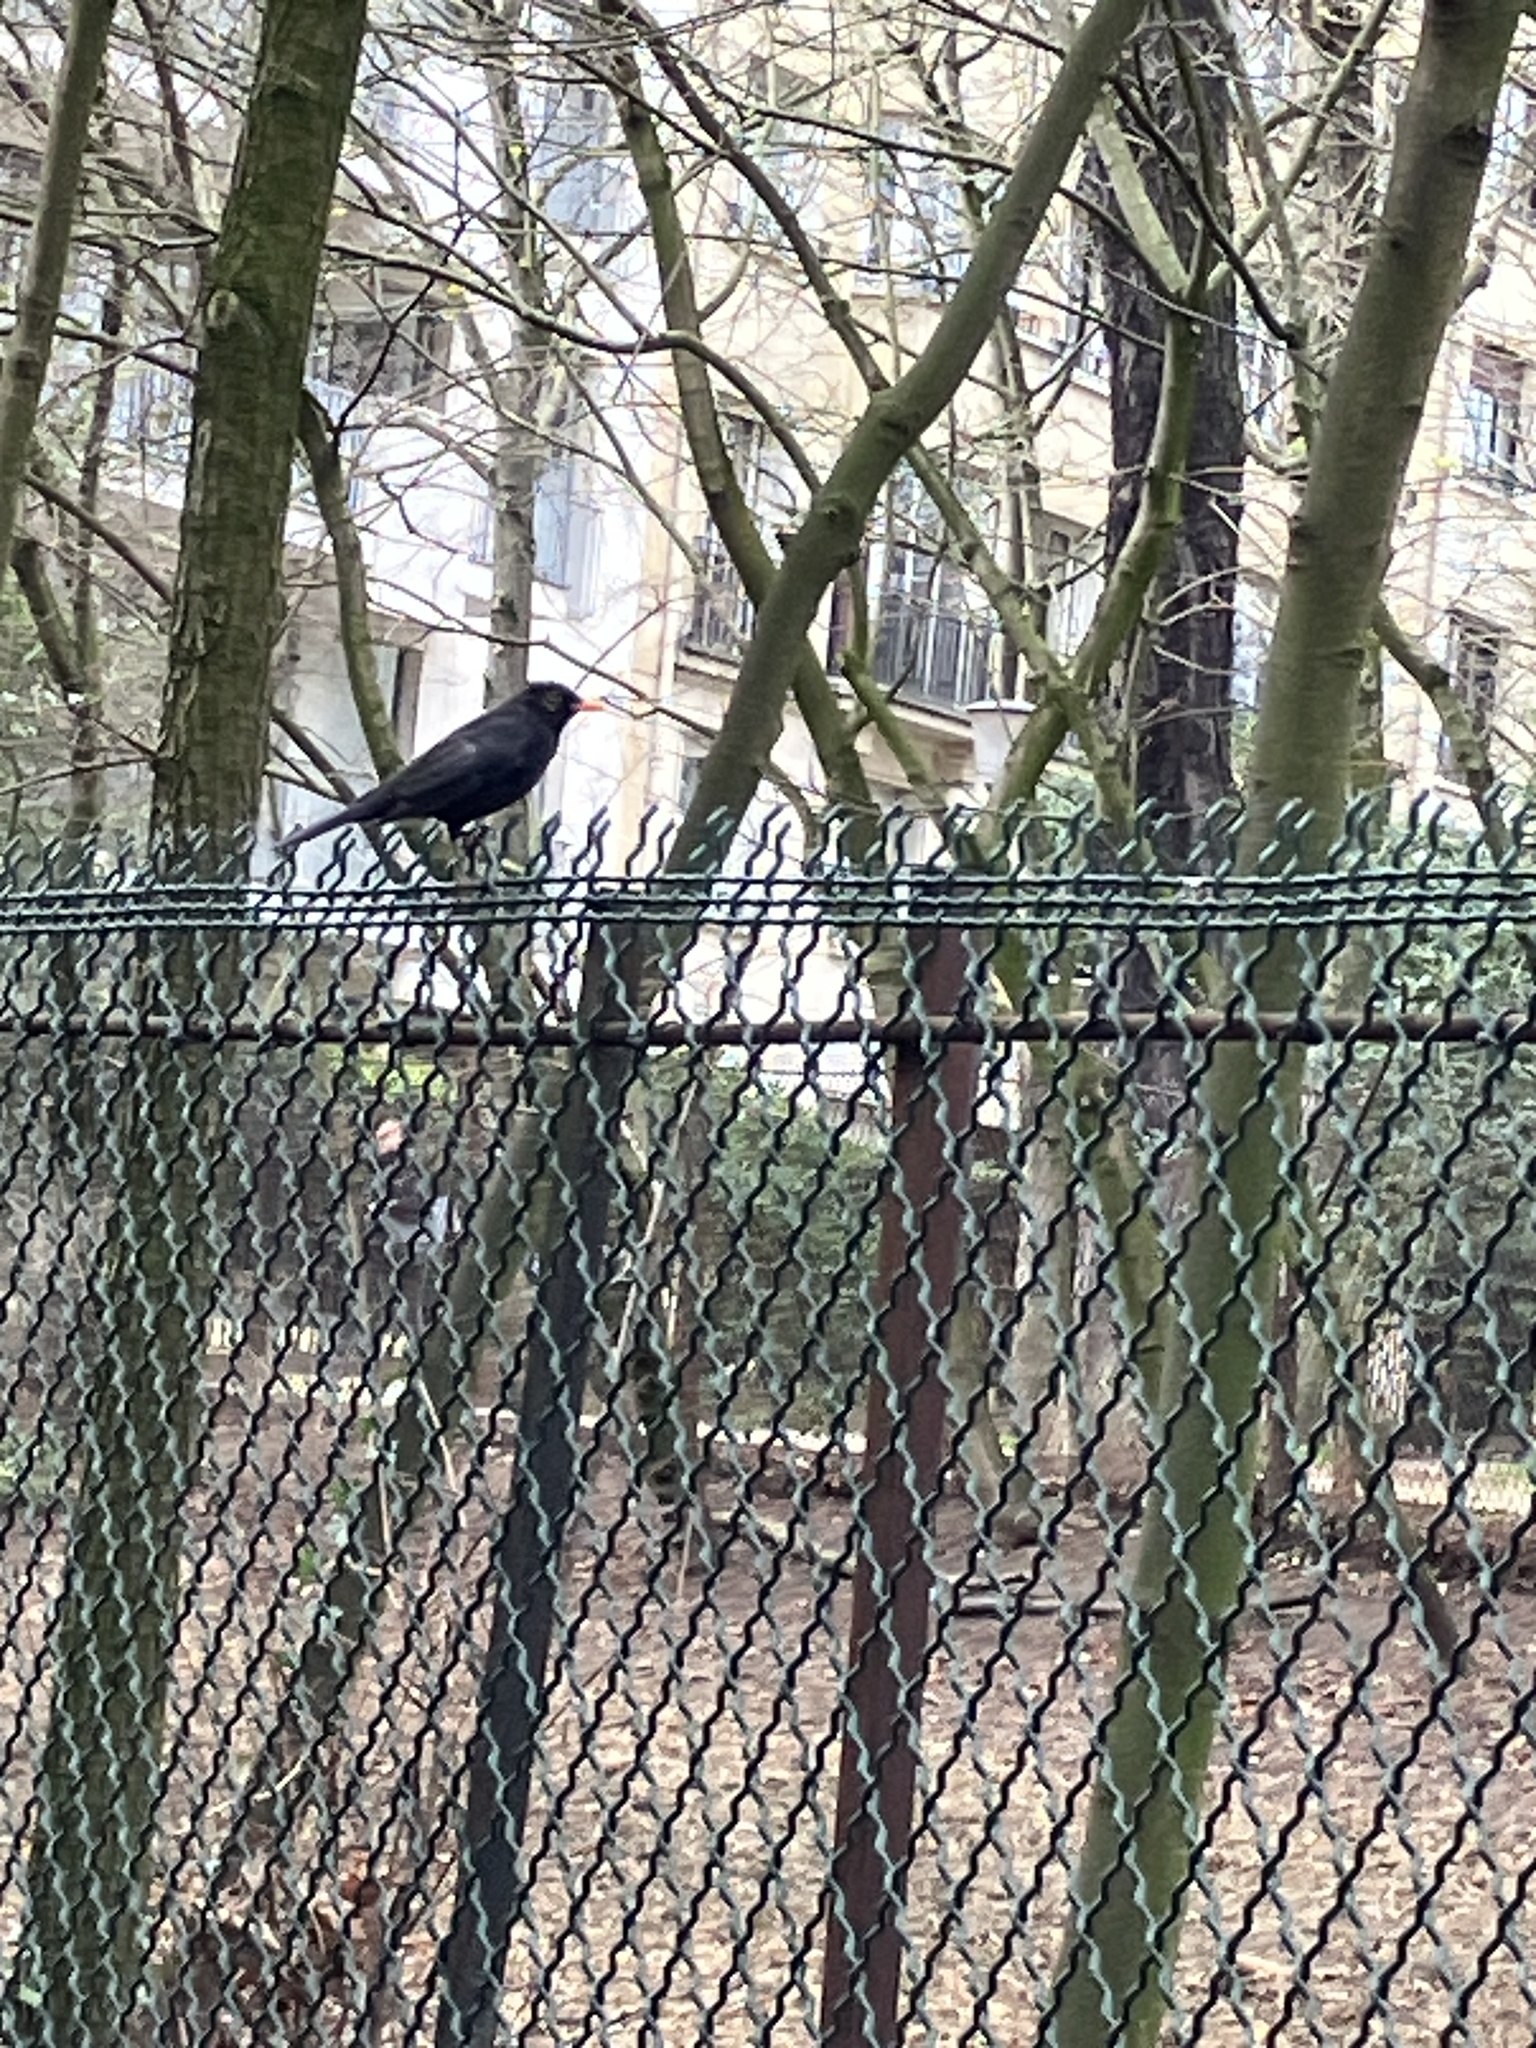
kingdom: Animalia
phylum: Chordata
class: Aves
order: Passeriformes
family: Turdidae
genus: Turdus
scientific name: Turdus merula
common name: Common blackbird
